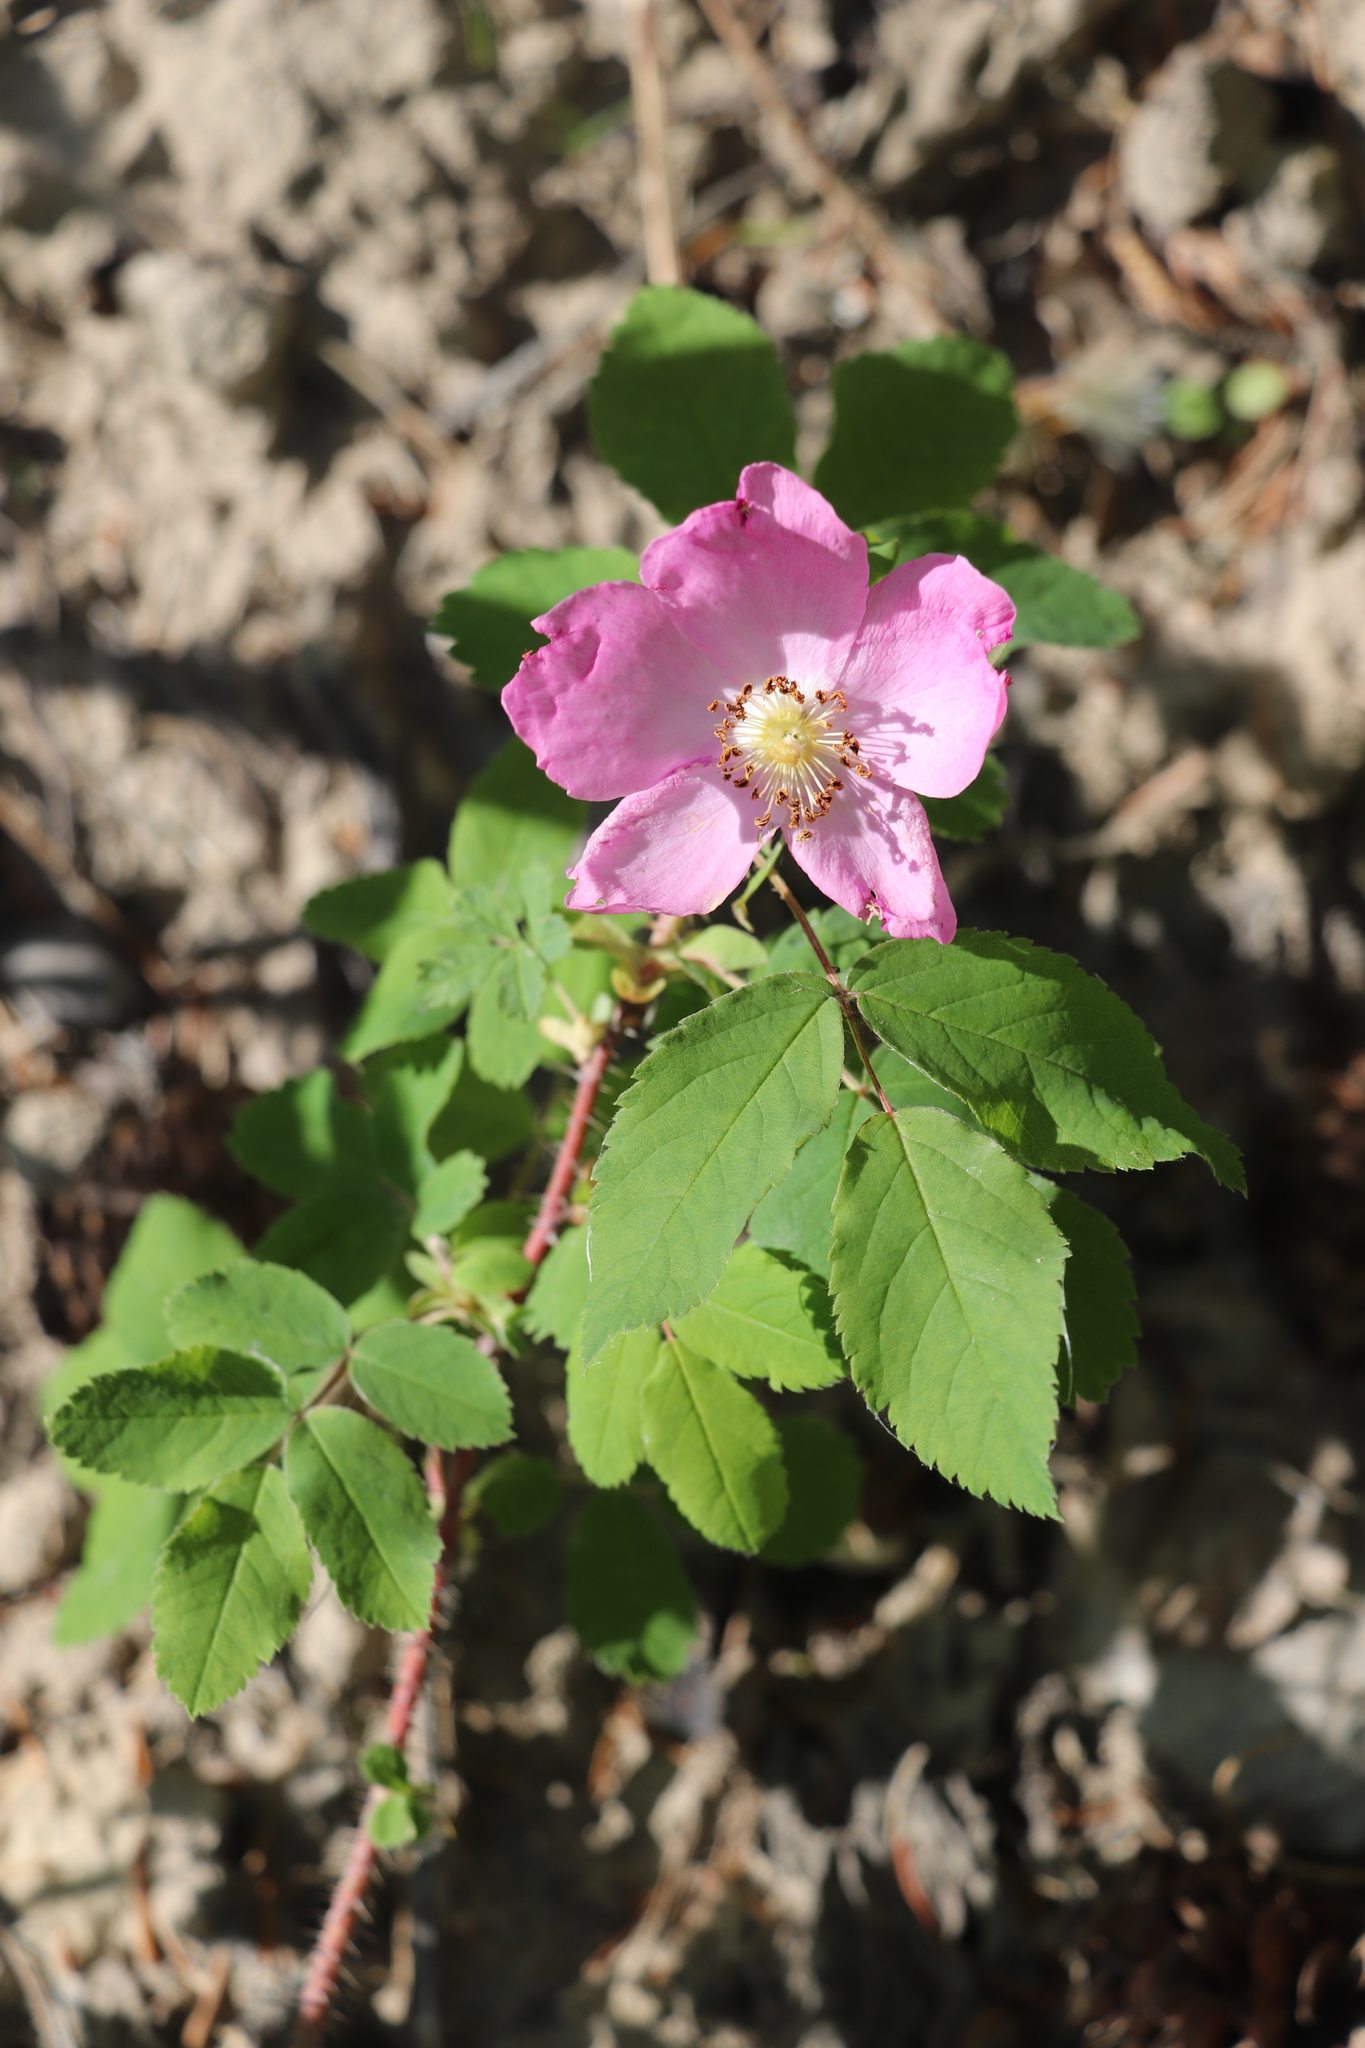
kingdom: Plantae
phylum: Tracheophyta
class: Magnoliopsida
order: Rosales
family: Rosaceae
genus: Rosa
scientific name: Rosa acicularis
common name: Prickly rose
